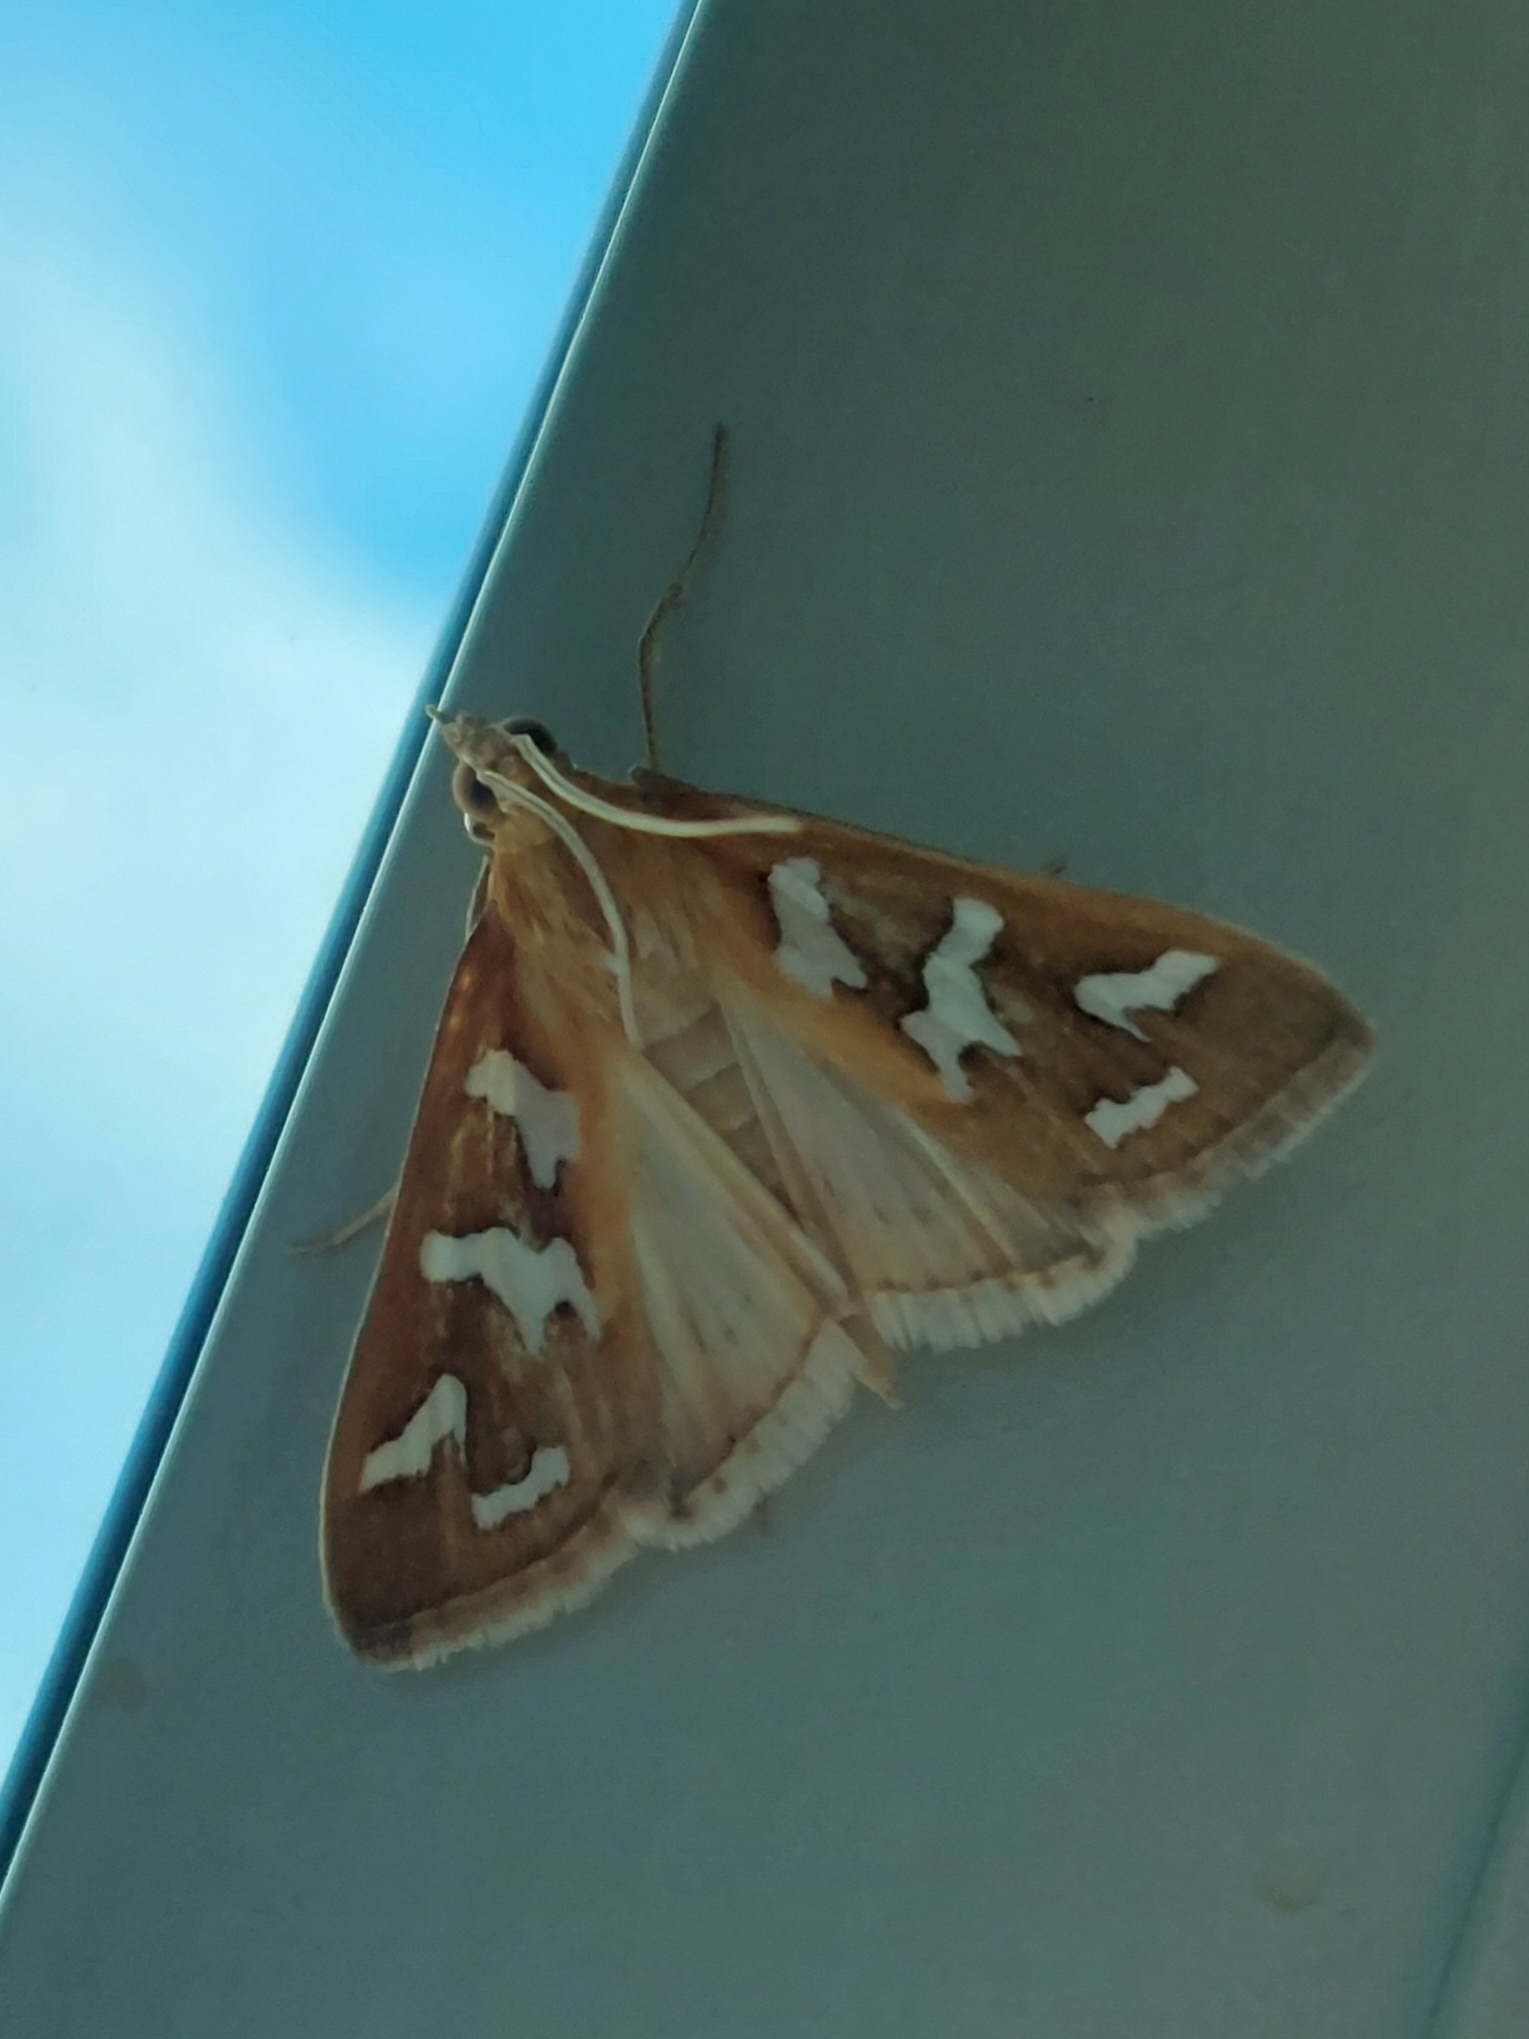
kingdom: Animalia
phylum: Arthropoda
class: Insecta
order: Lepidoptera
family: Crambidae
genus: Diastictis
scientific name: Diastictis fracturalis
